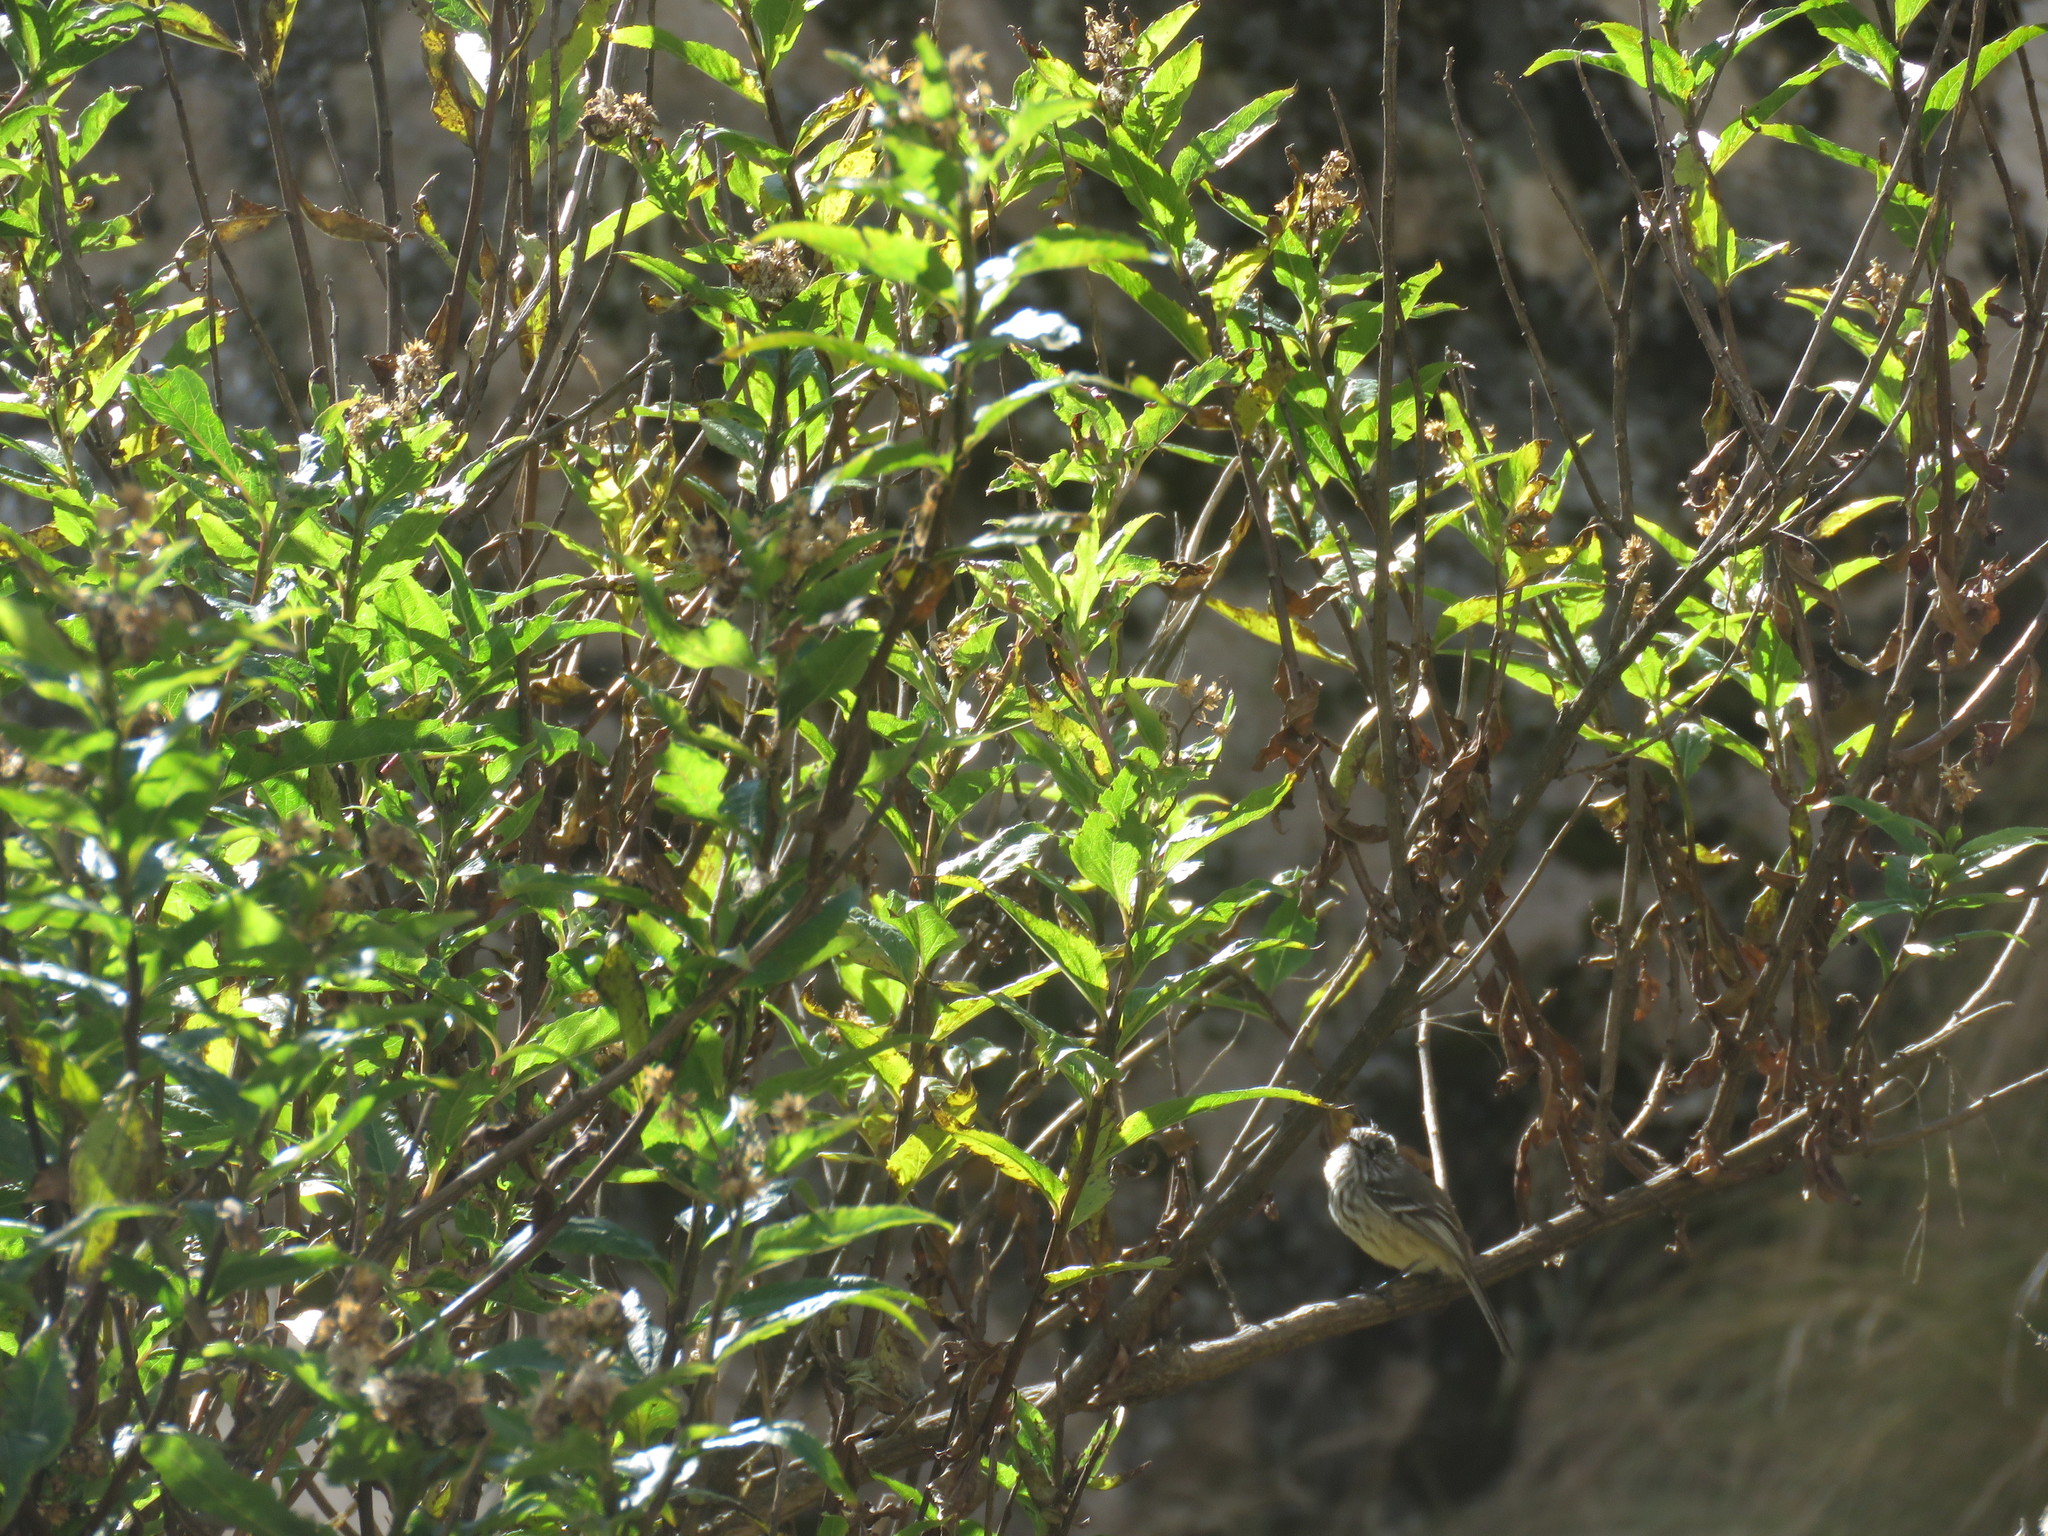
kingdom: Animalia
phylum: Chordata
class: Aves
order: Passeriformes
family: Tyrannidae
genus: Anairetes
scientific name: Anairetes parulus
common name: Tufted tit-tyrant
